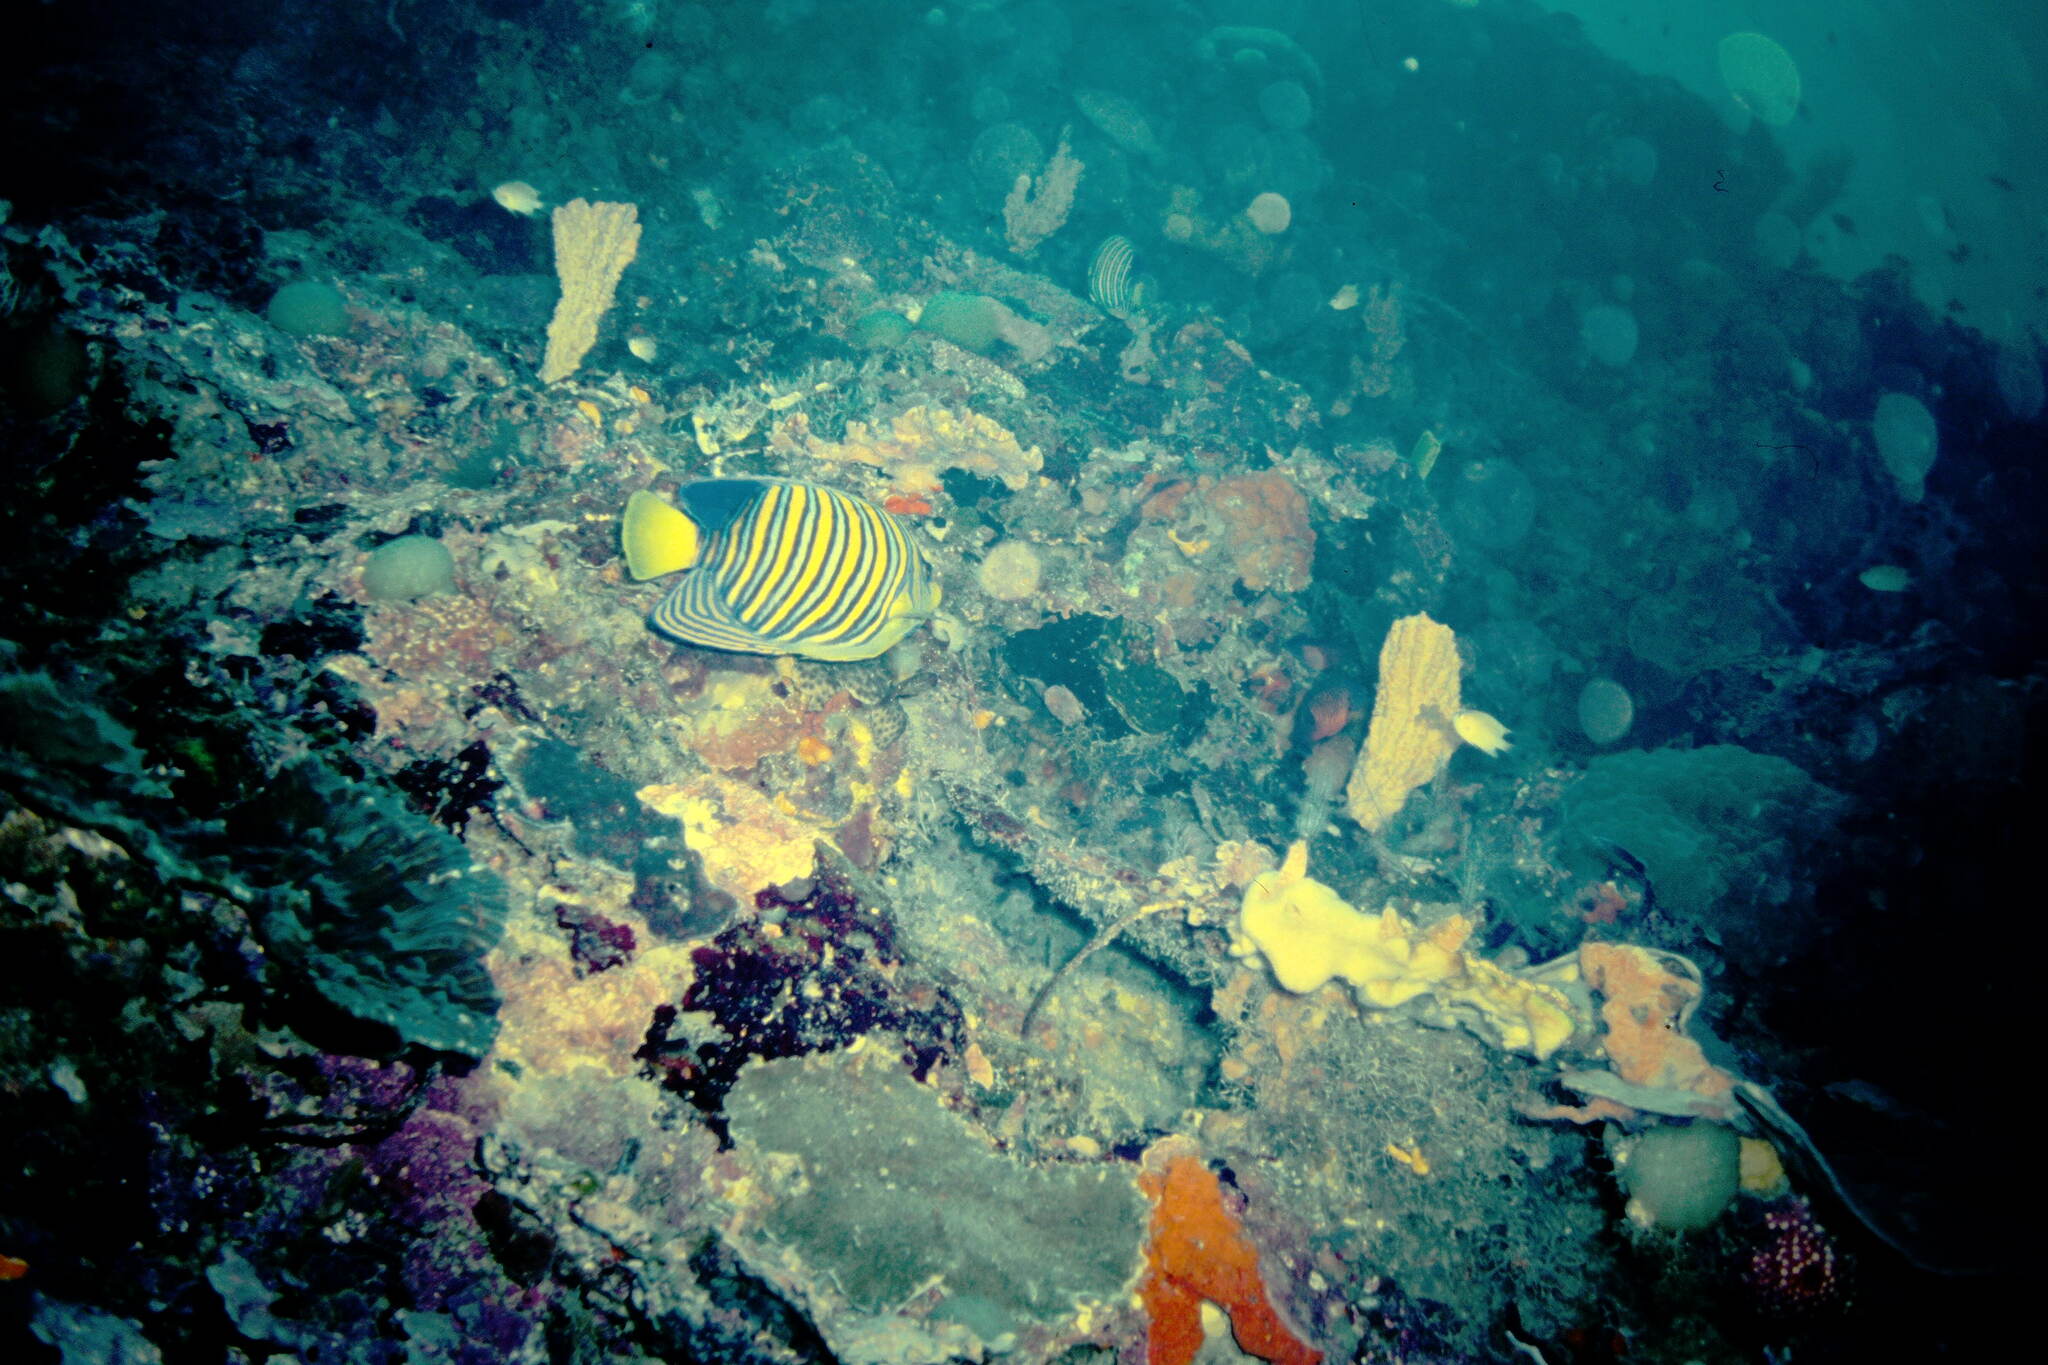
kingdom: Animalia
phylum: Chordata
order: Perciformes
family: Pomacanthidae
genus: Pygoplites
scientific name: Pygoplites diacanthus
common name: Regal angelfish
